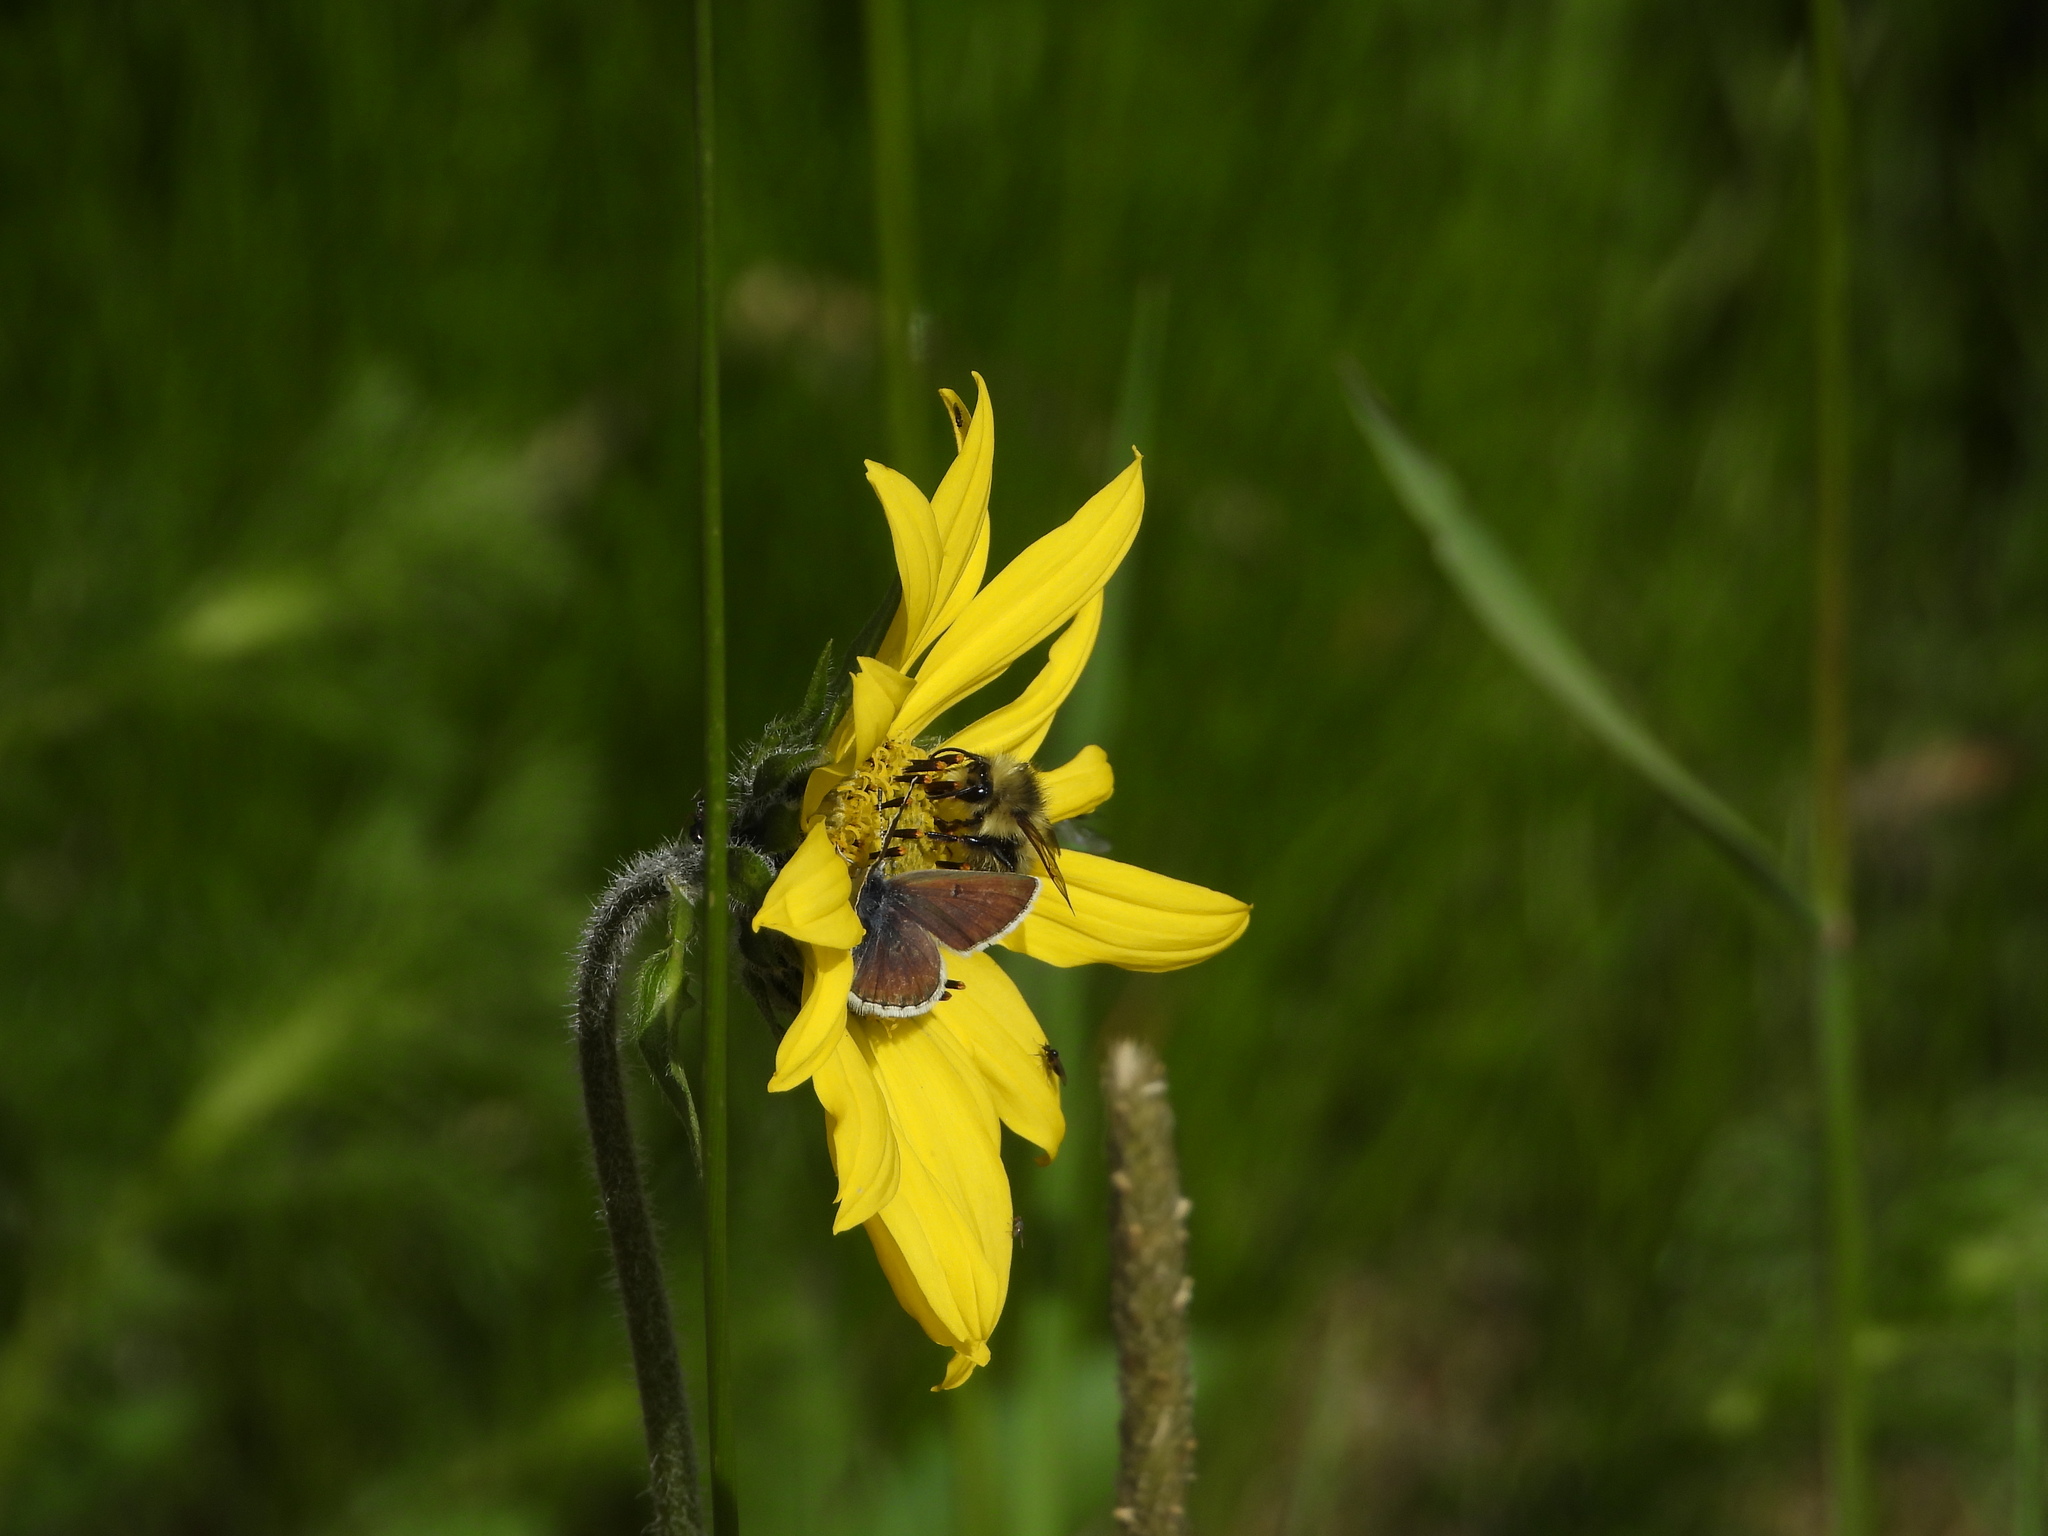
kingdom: Animalia
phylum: Arthropoda
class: Insecta
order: Lepidoptera
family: Lycaenidae
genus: Agriades
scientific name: Agriades glandon
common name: Glandon blue
